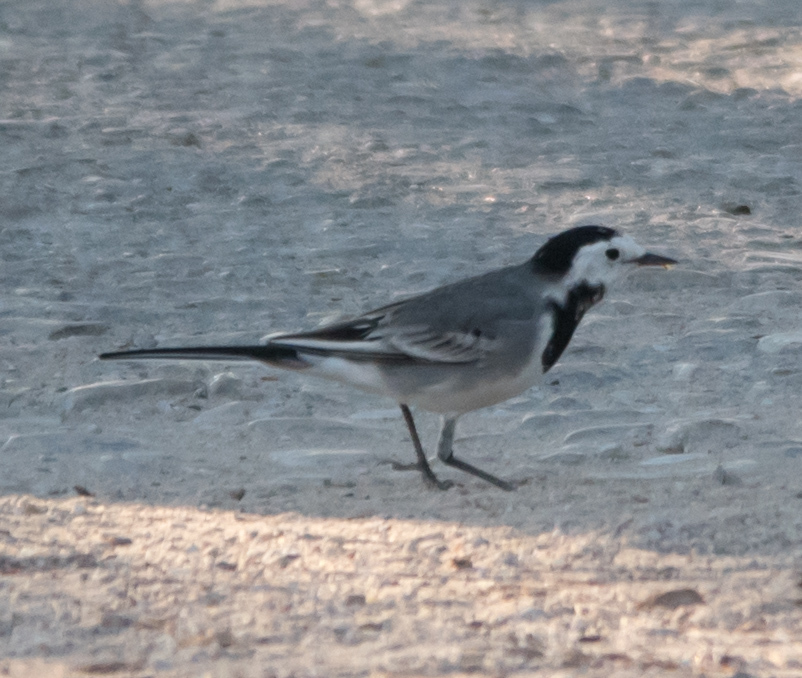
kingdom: Animalia
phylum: Chordata
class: Aves
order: Passeriformes
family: Motacillidae
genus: Motacilla
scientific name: Motacilla alba
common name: White wagtail
